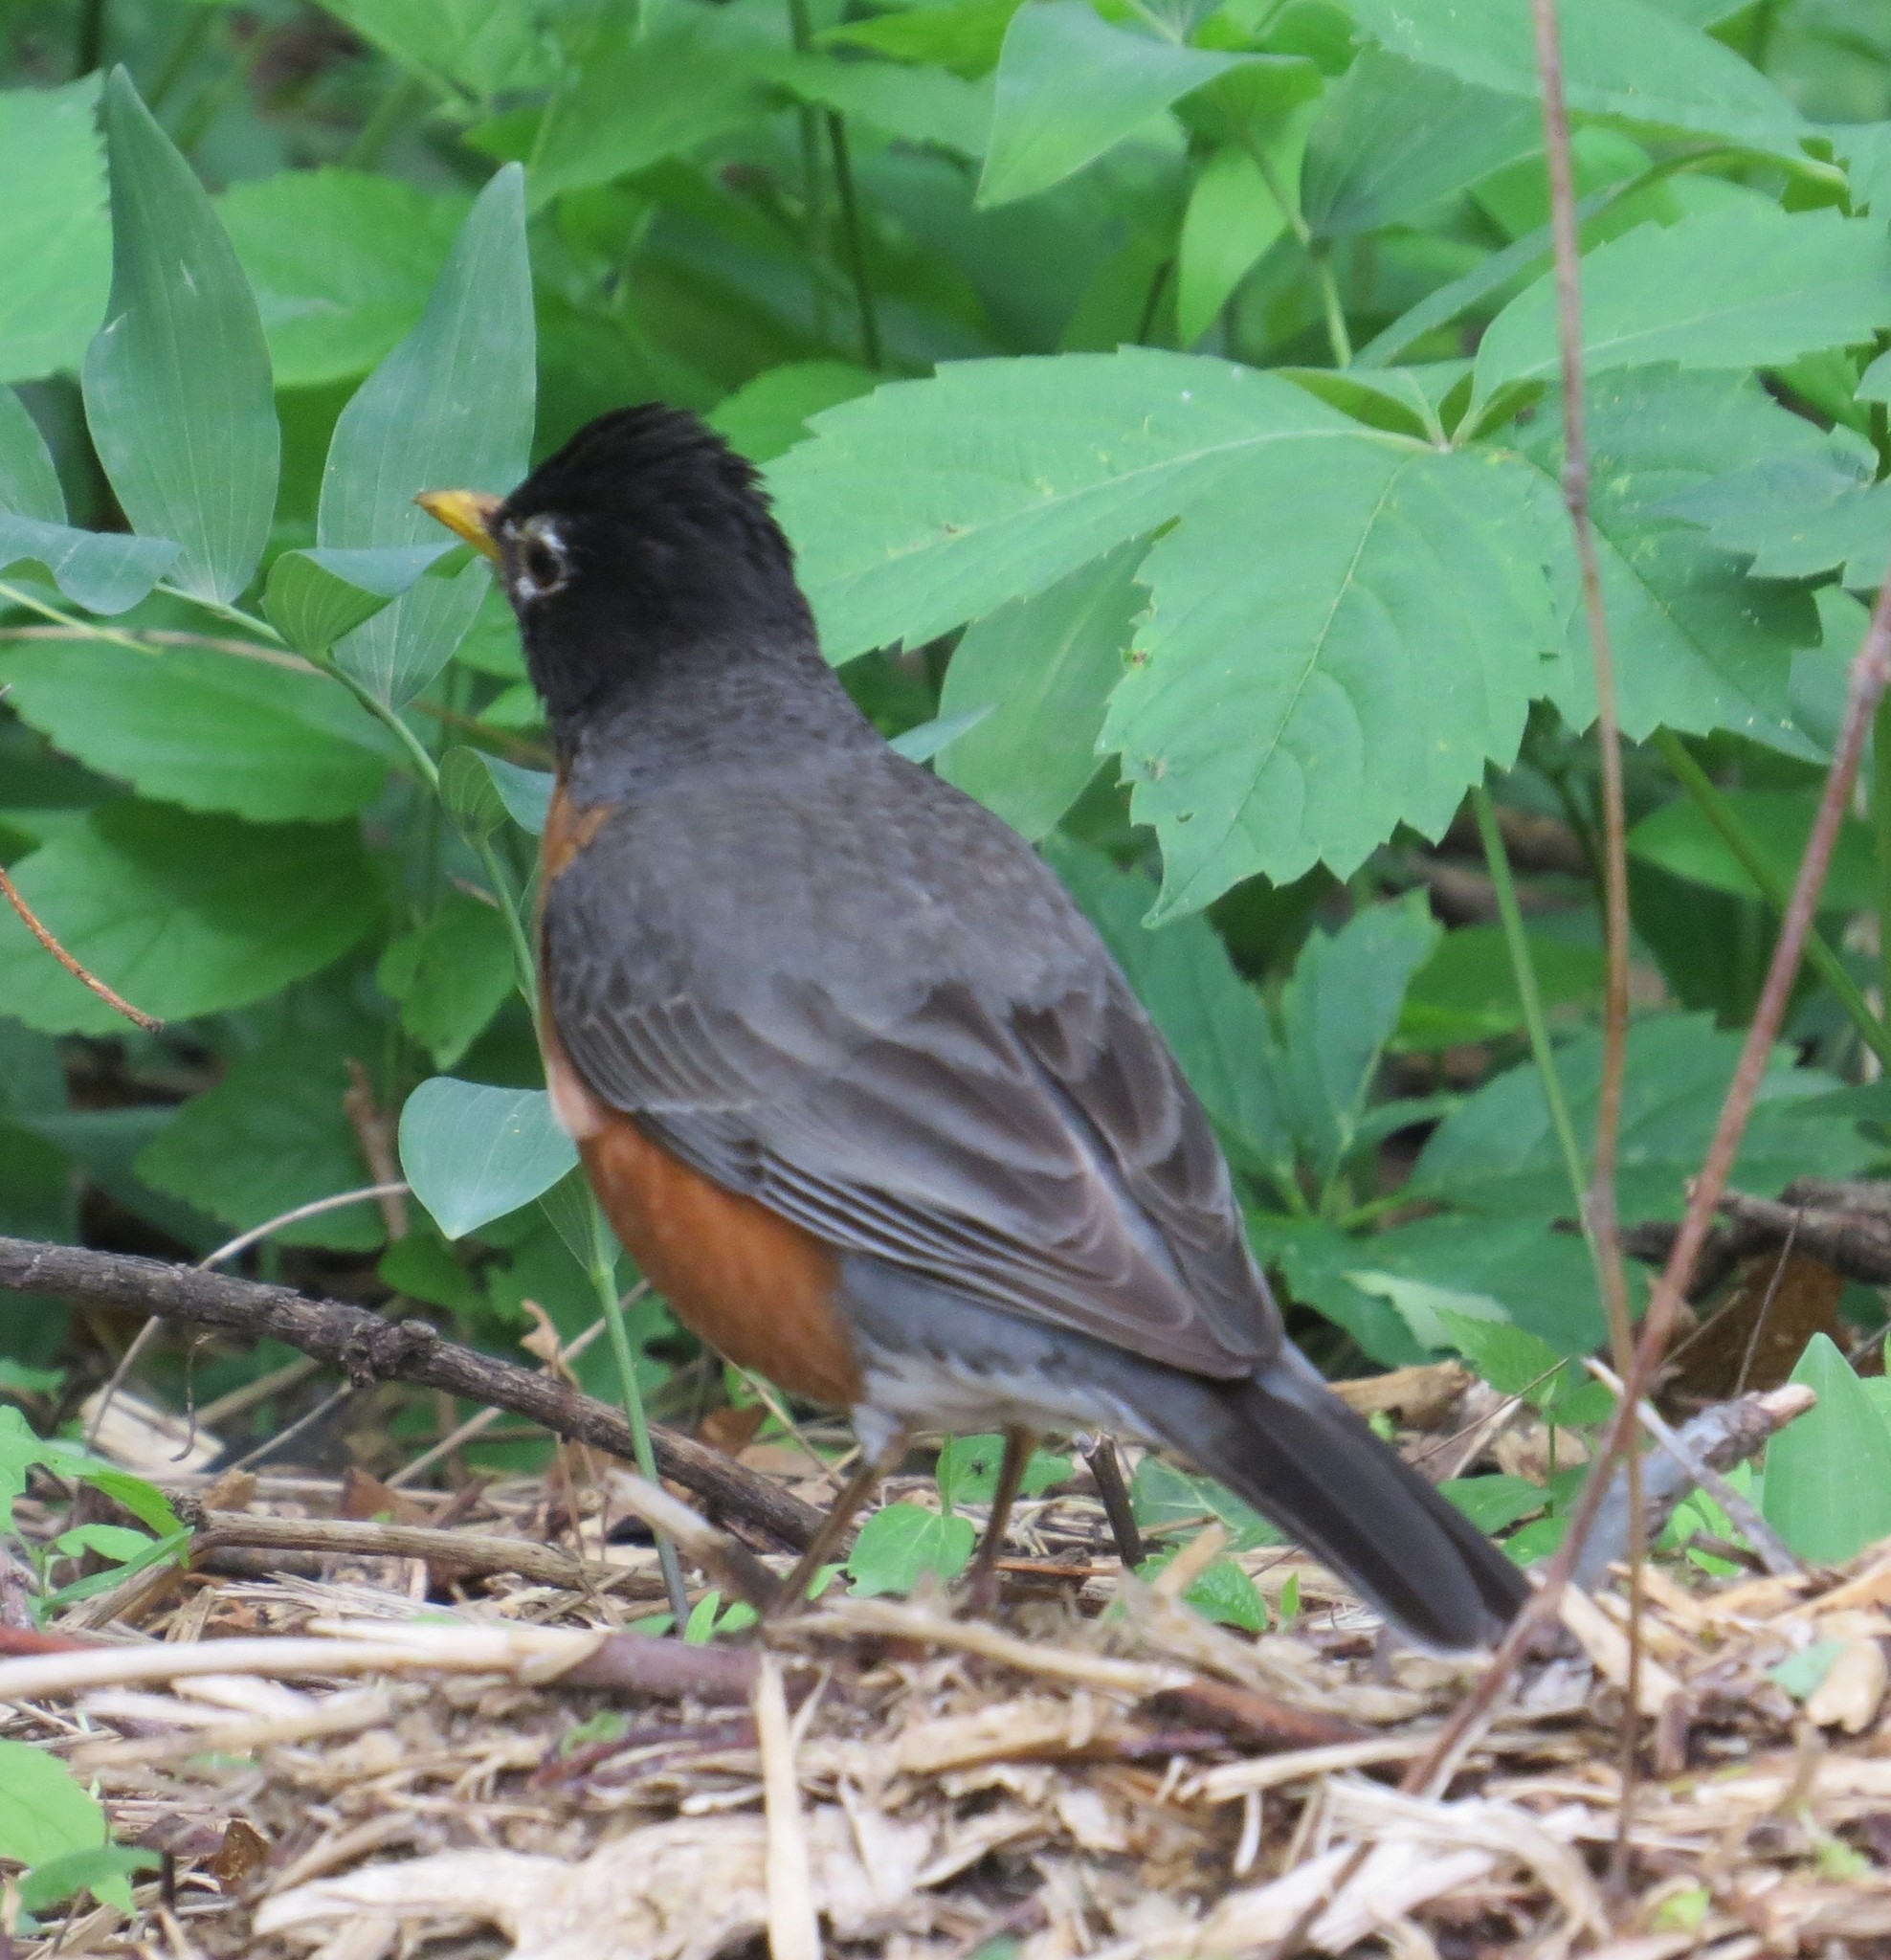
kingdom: Animalia
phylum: Chordata
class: Aves
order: Passeriformes
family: Turdidae
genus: Turdus
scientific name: Turdus migratorius
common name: American robin
